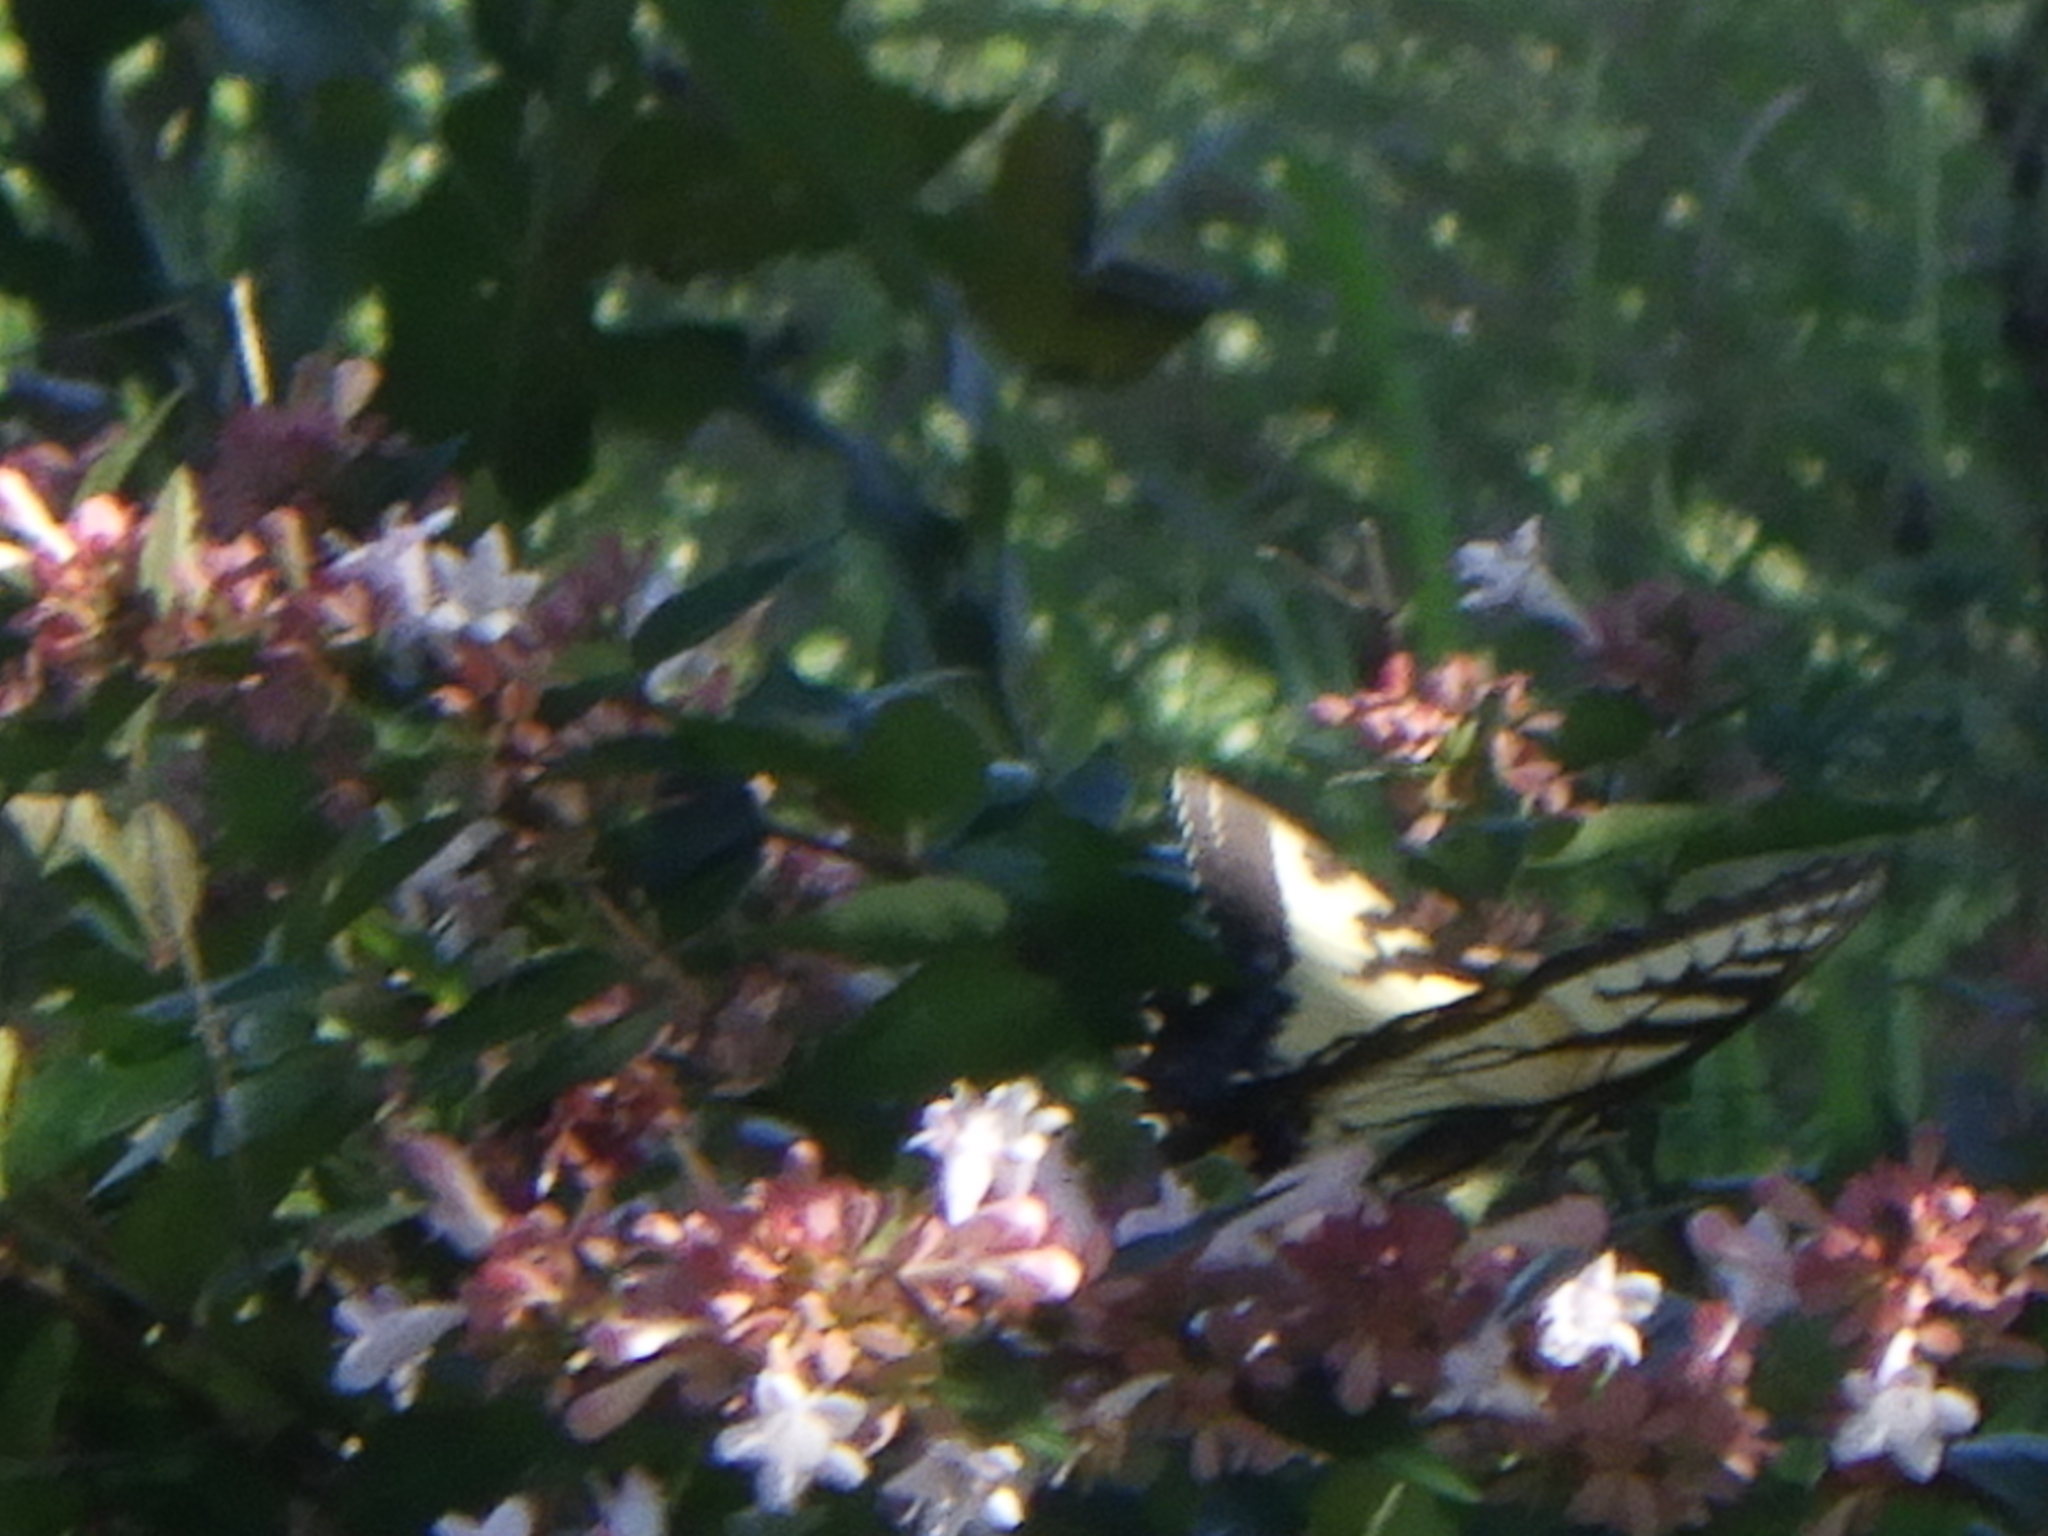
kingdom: Animalia
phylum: Arthropoda
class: Insecta
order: Lepidoptera
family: Papilionidae
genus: Papilio
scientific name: Papilio glaucus
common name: Tiger swallowtail
